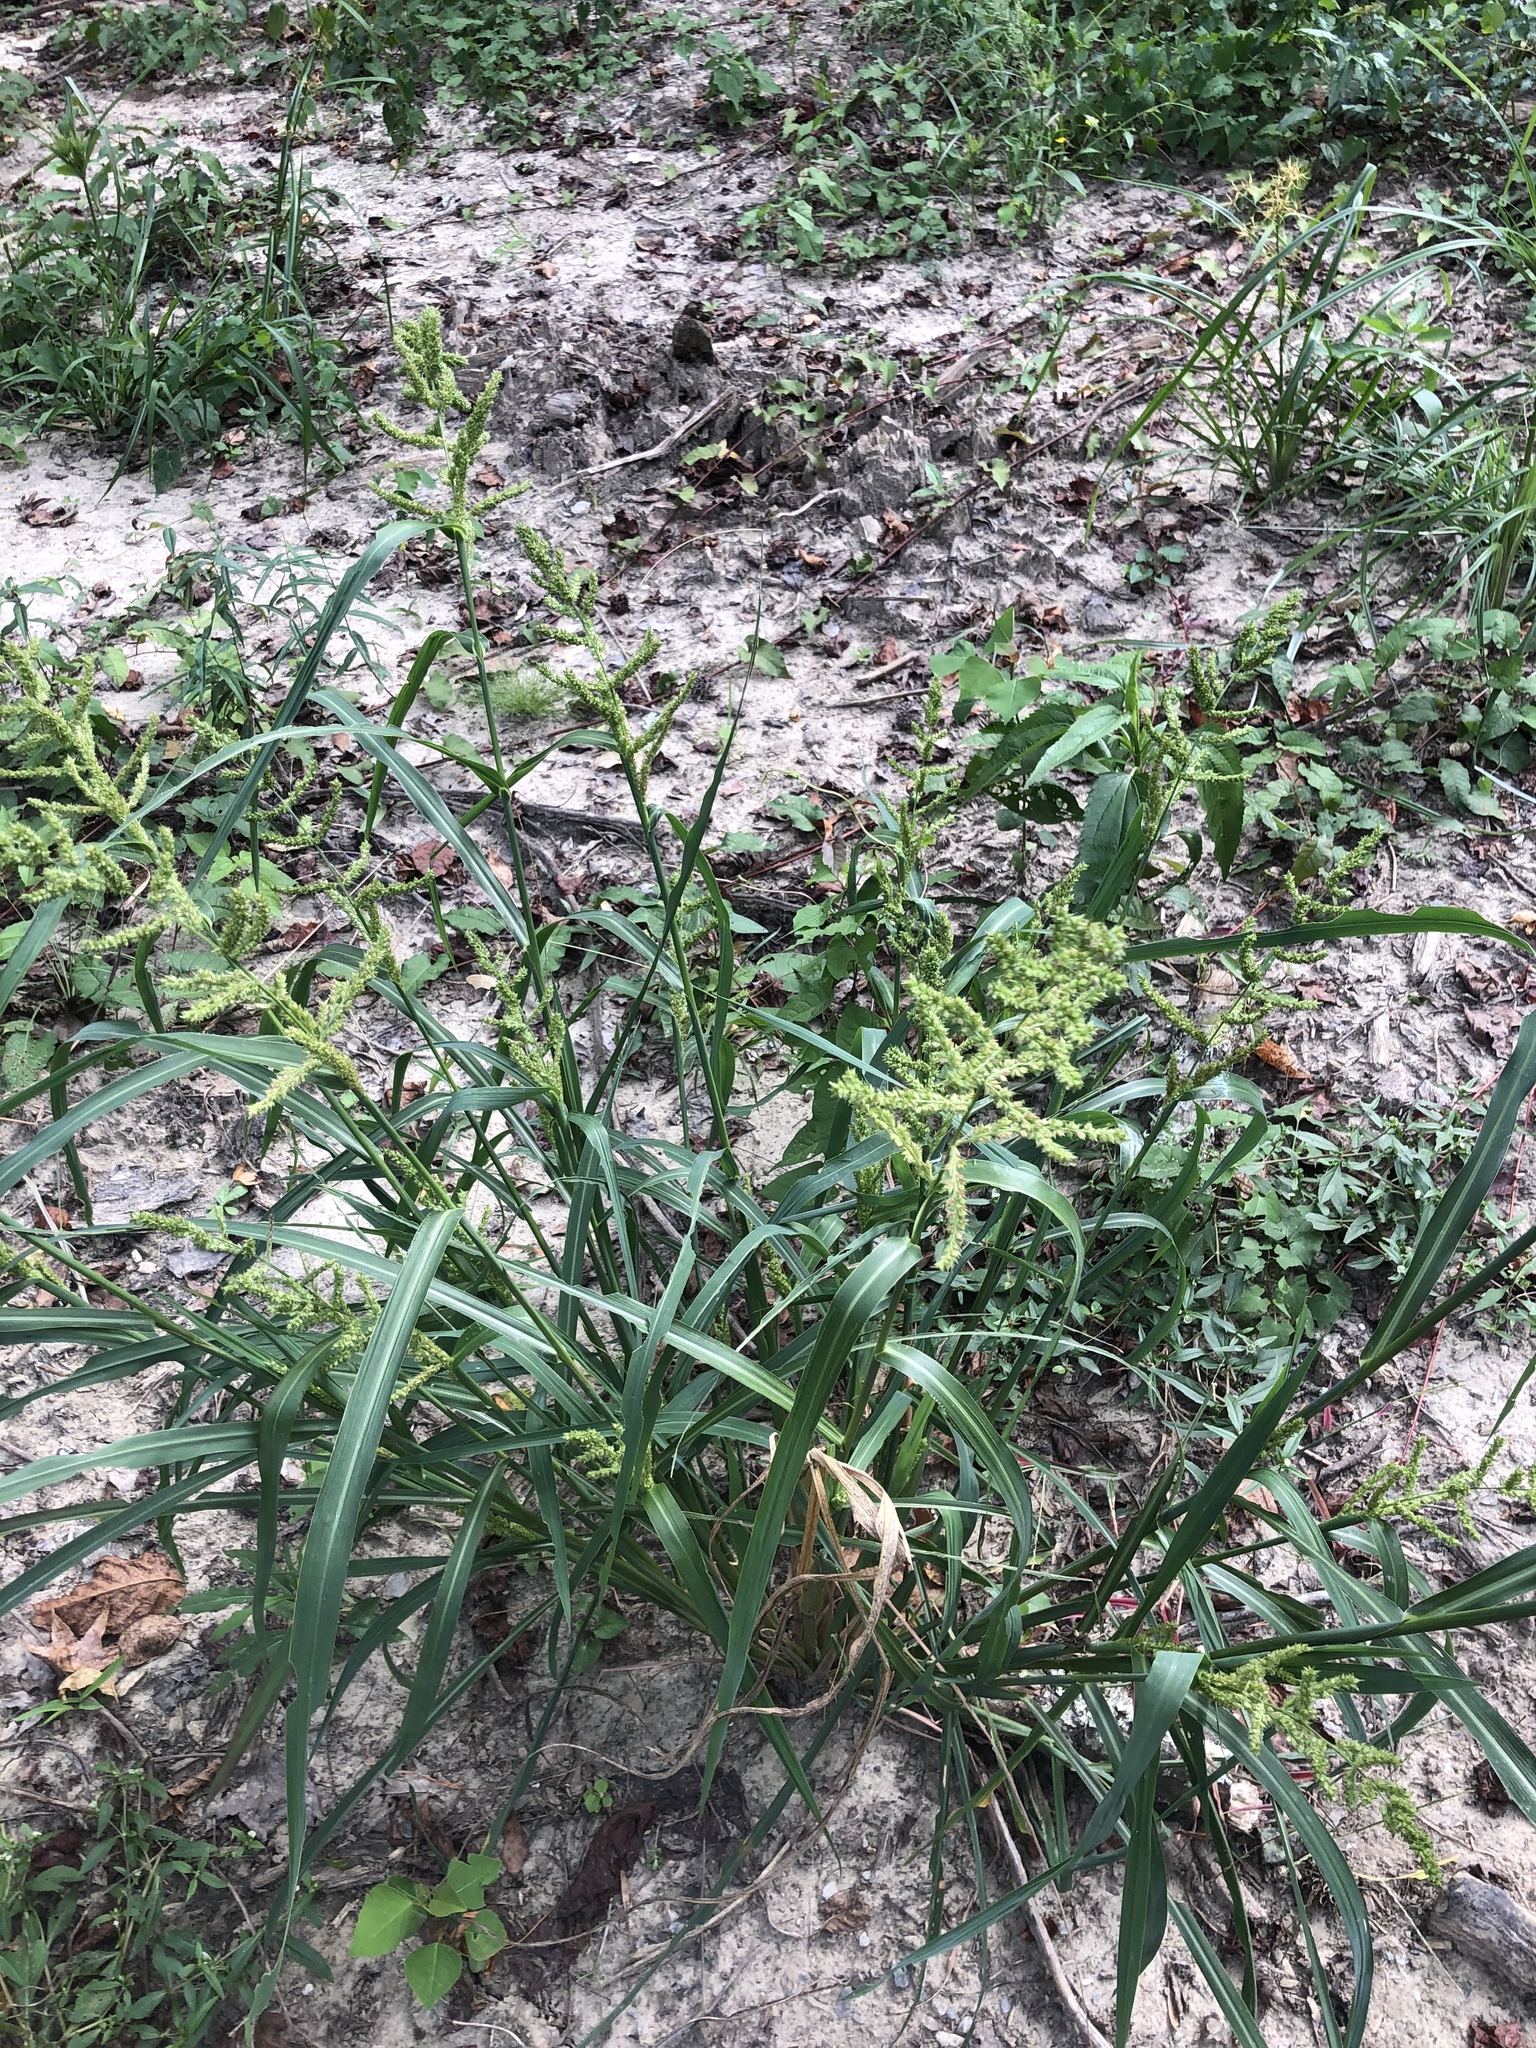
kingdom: Plantae
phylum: Tracheophyta
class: Liliopsida
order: Poales
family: Poaceae
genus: Echinochloa
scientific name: Echinochloa muricata
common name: American barnyard grass
